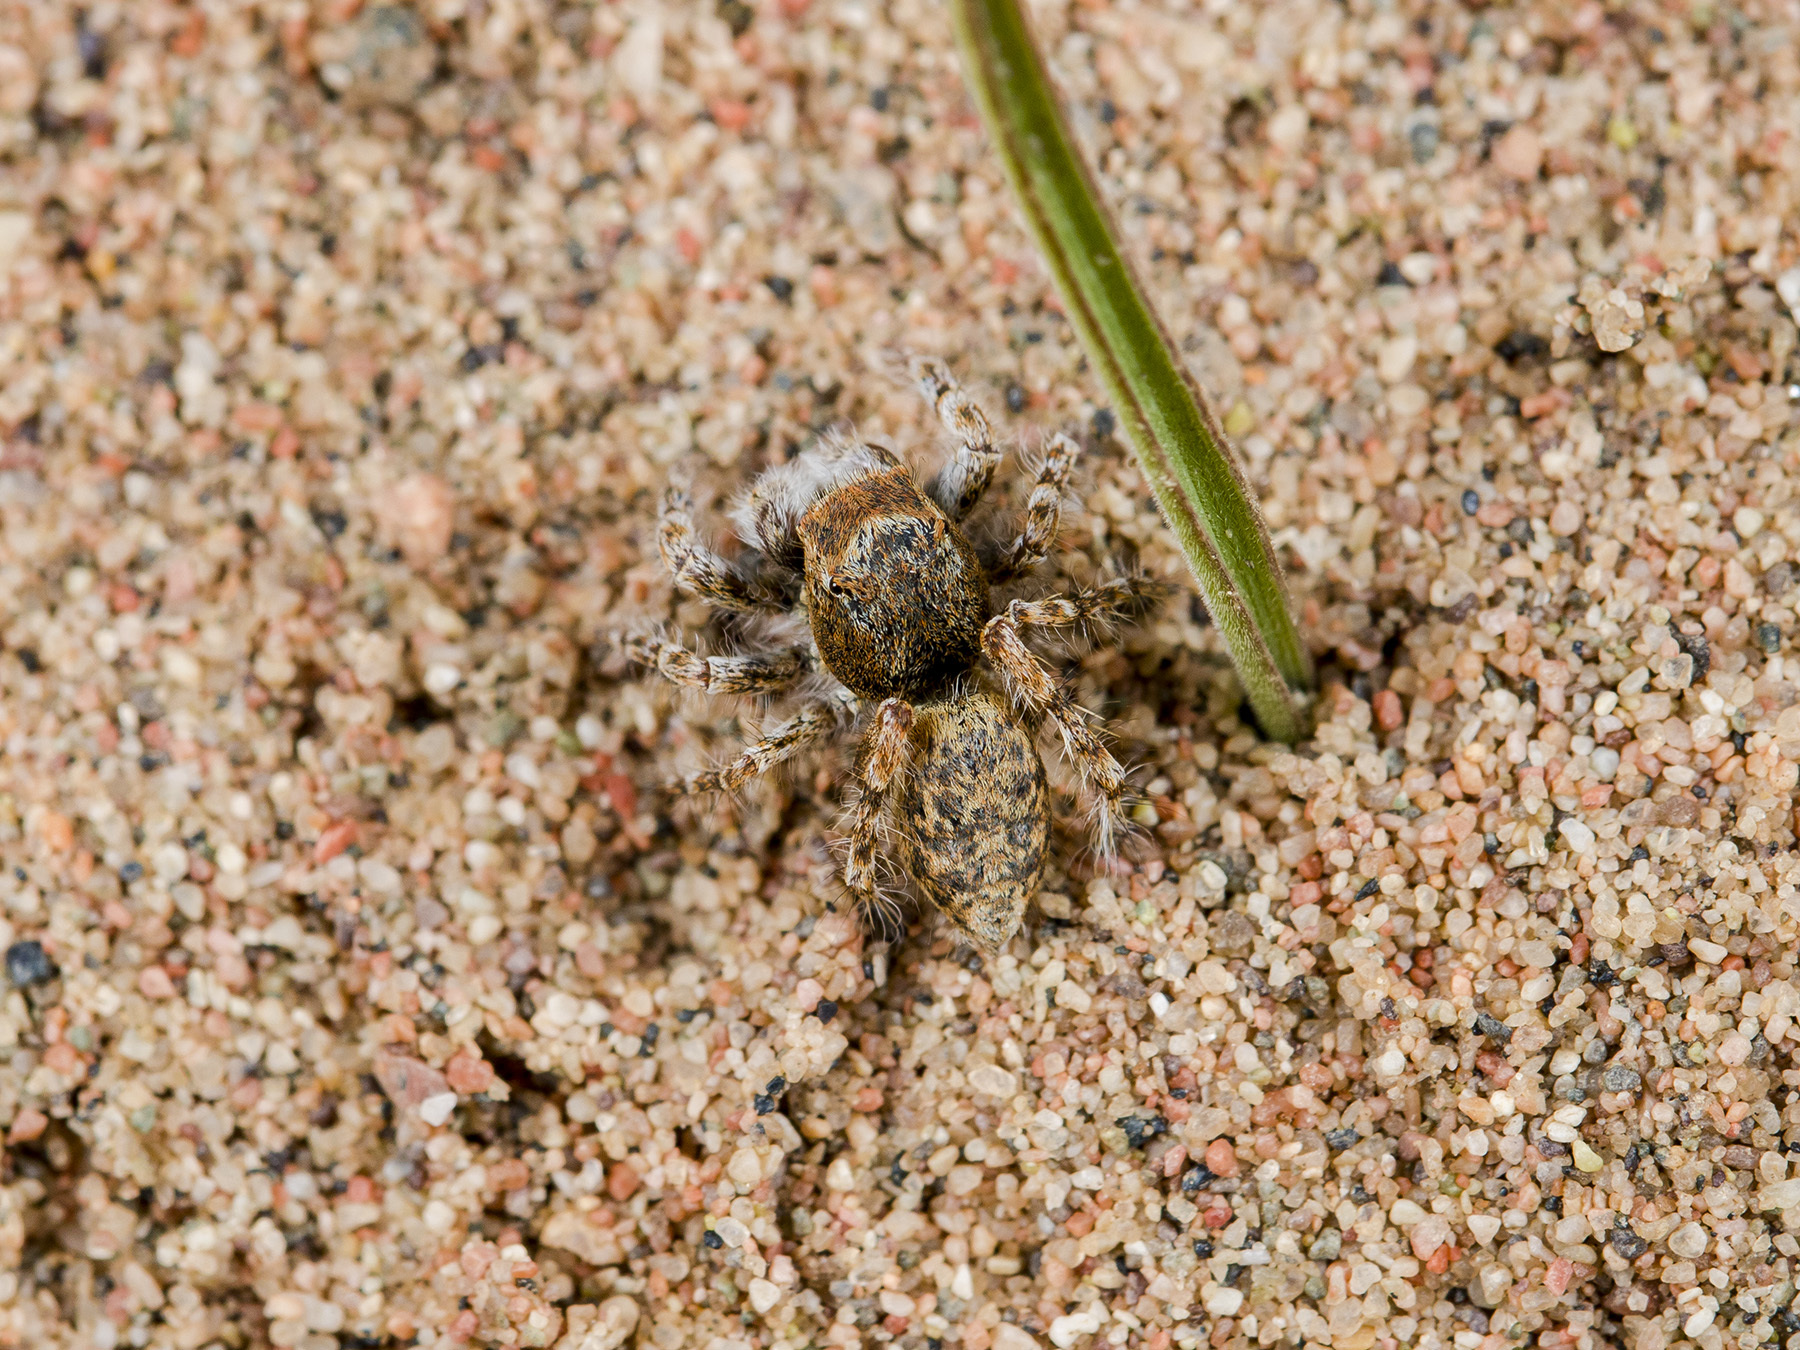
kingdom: Animalia
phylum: Arthropoda
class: Arachnida
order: Araneae
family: Salticidae
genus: Yllenus
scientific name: Yllenus uiguricus
